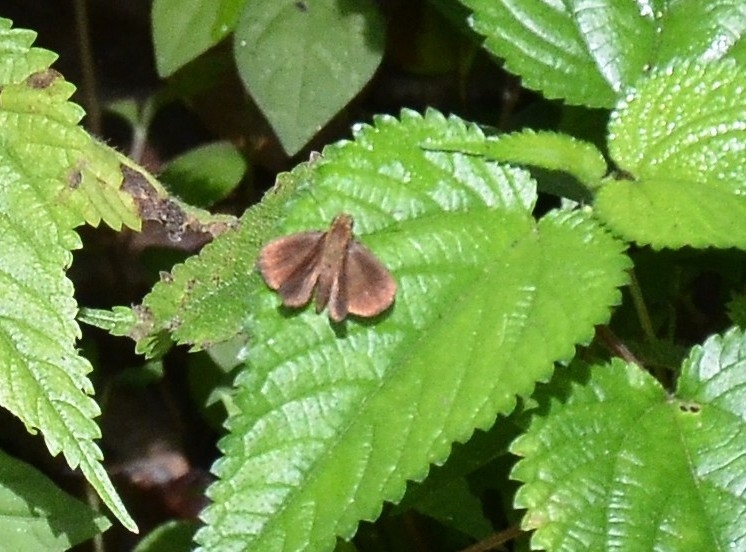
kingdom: Animalia
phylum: Arthropoda
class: Insecta
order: Lepidoptera
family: Hesperiidae
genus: Iambrix
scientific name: Iambrix salsala
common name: Chestnut bob
